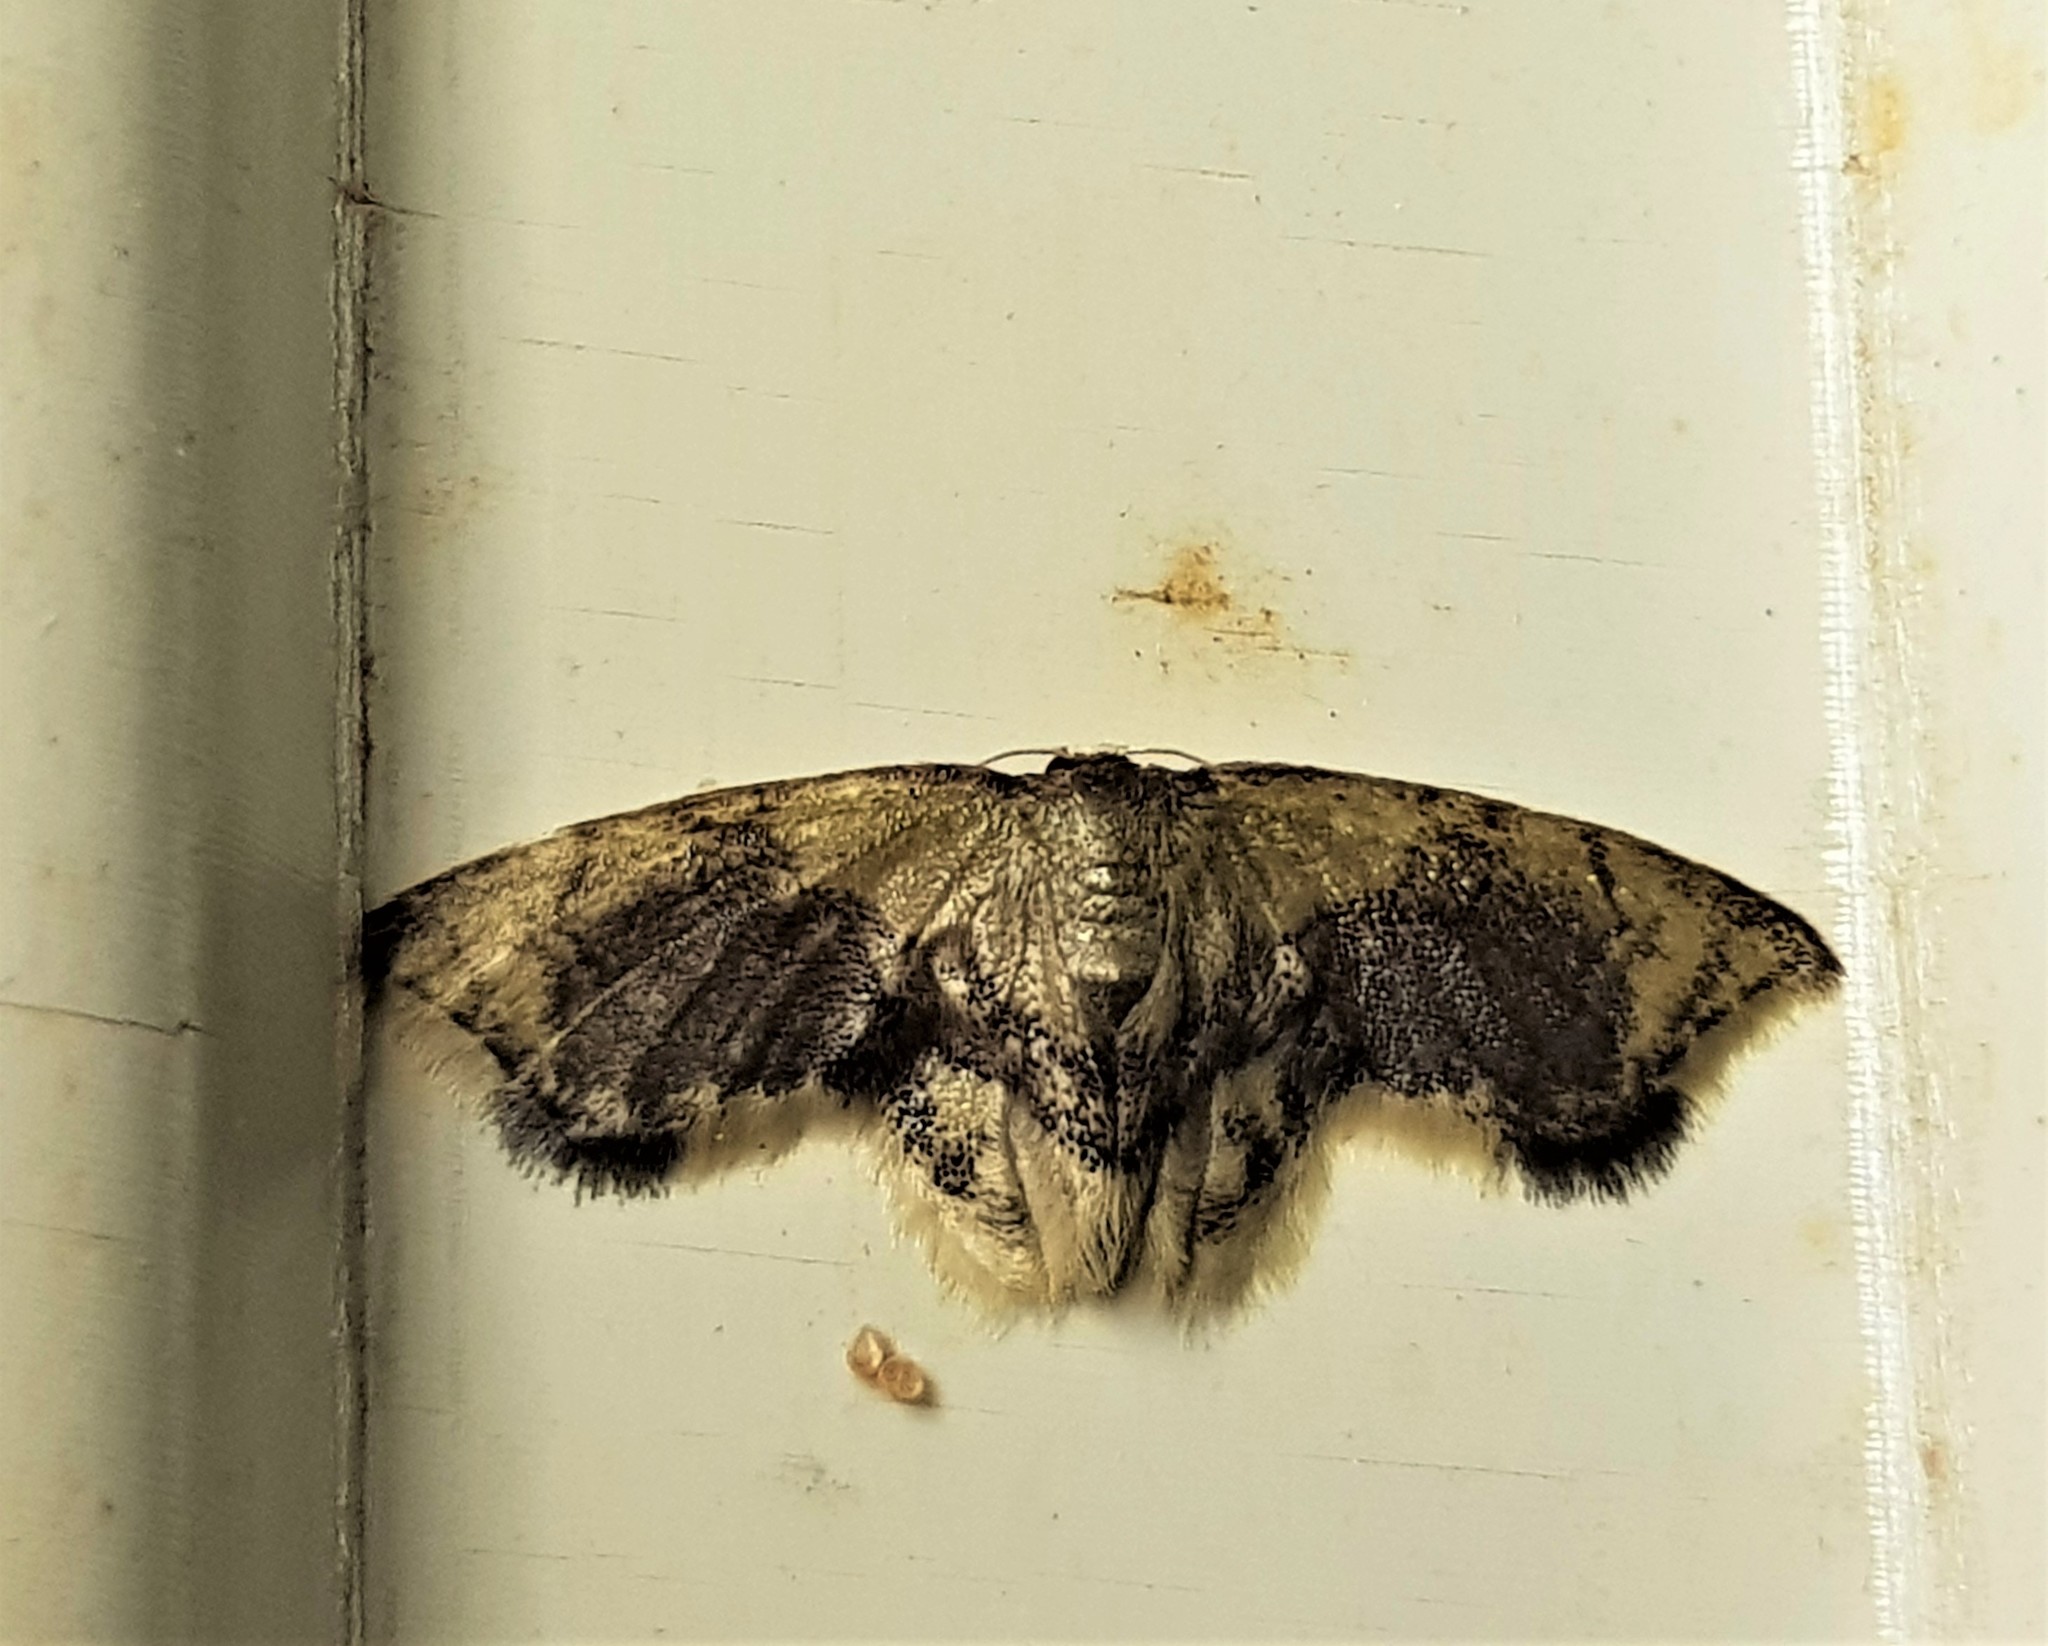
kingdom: Animalia
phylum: Arthropoda
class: Insecta
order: Lepidoptera
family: Geometridae
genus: Idaea
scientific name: Idaea angulata
